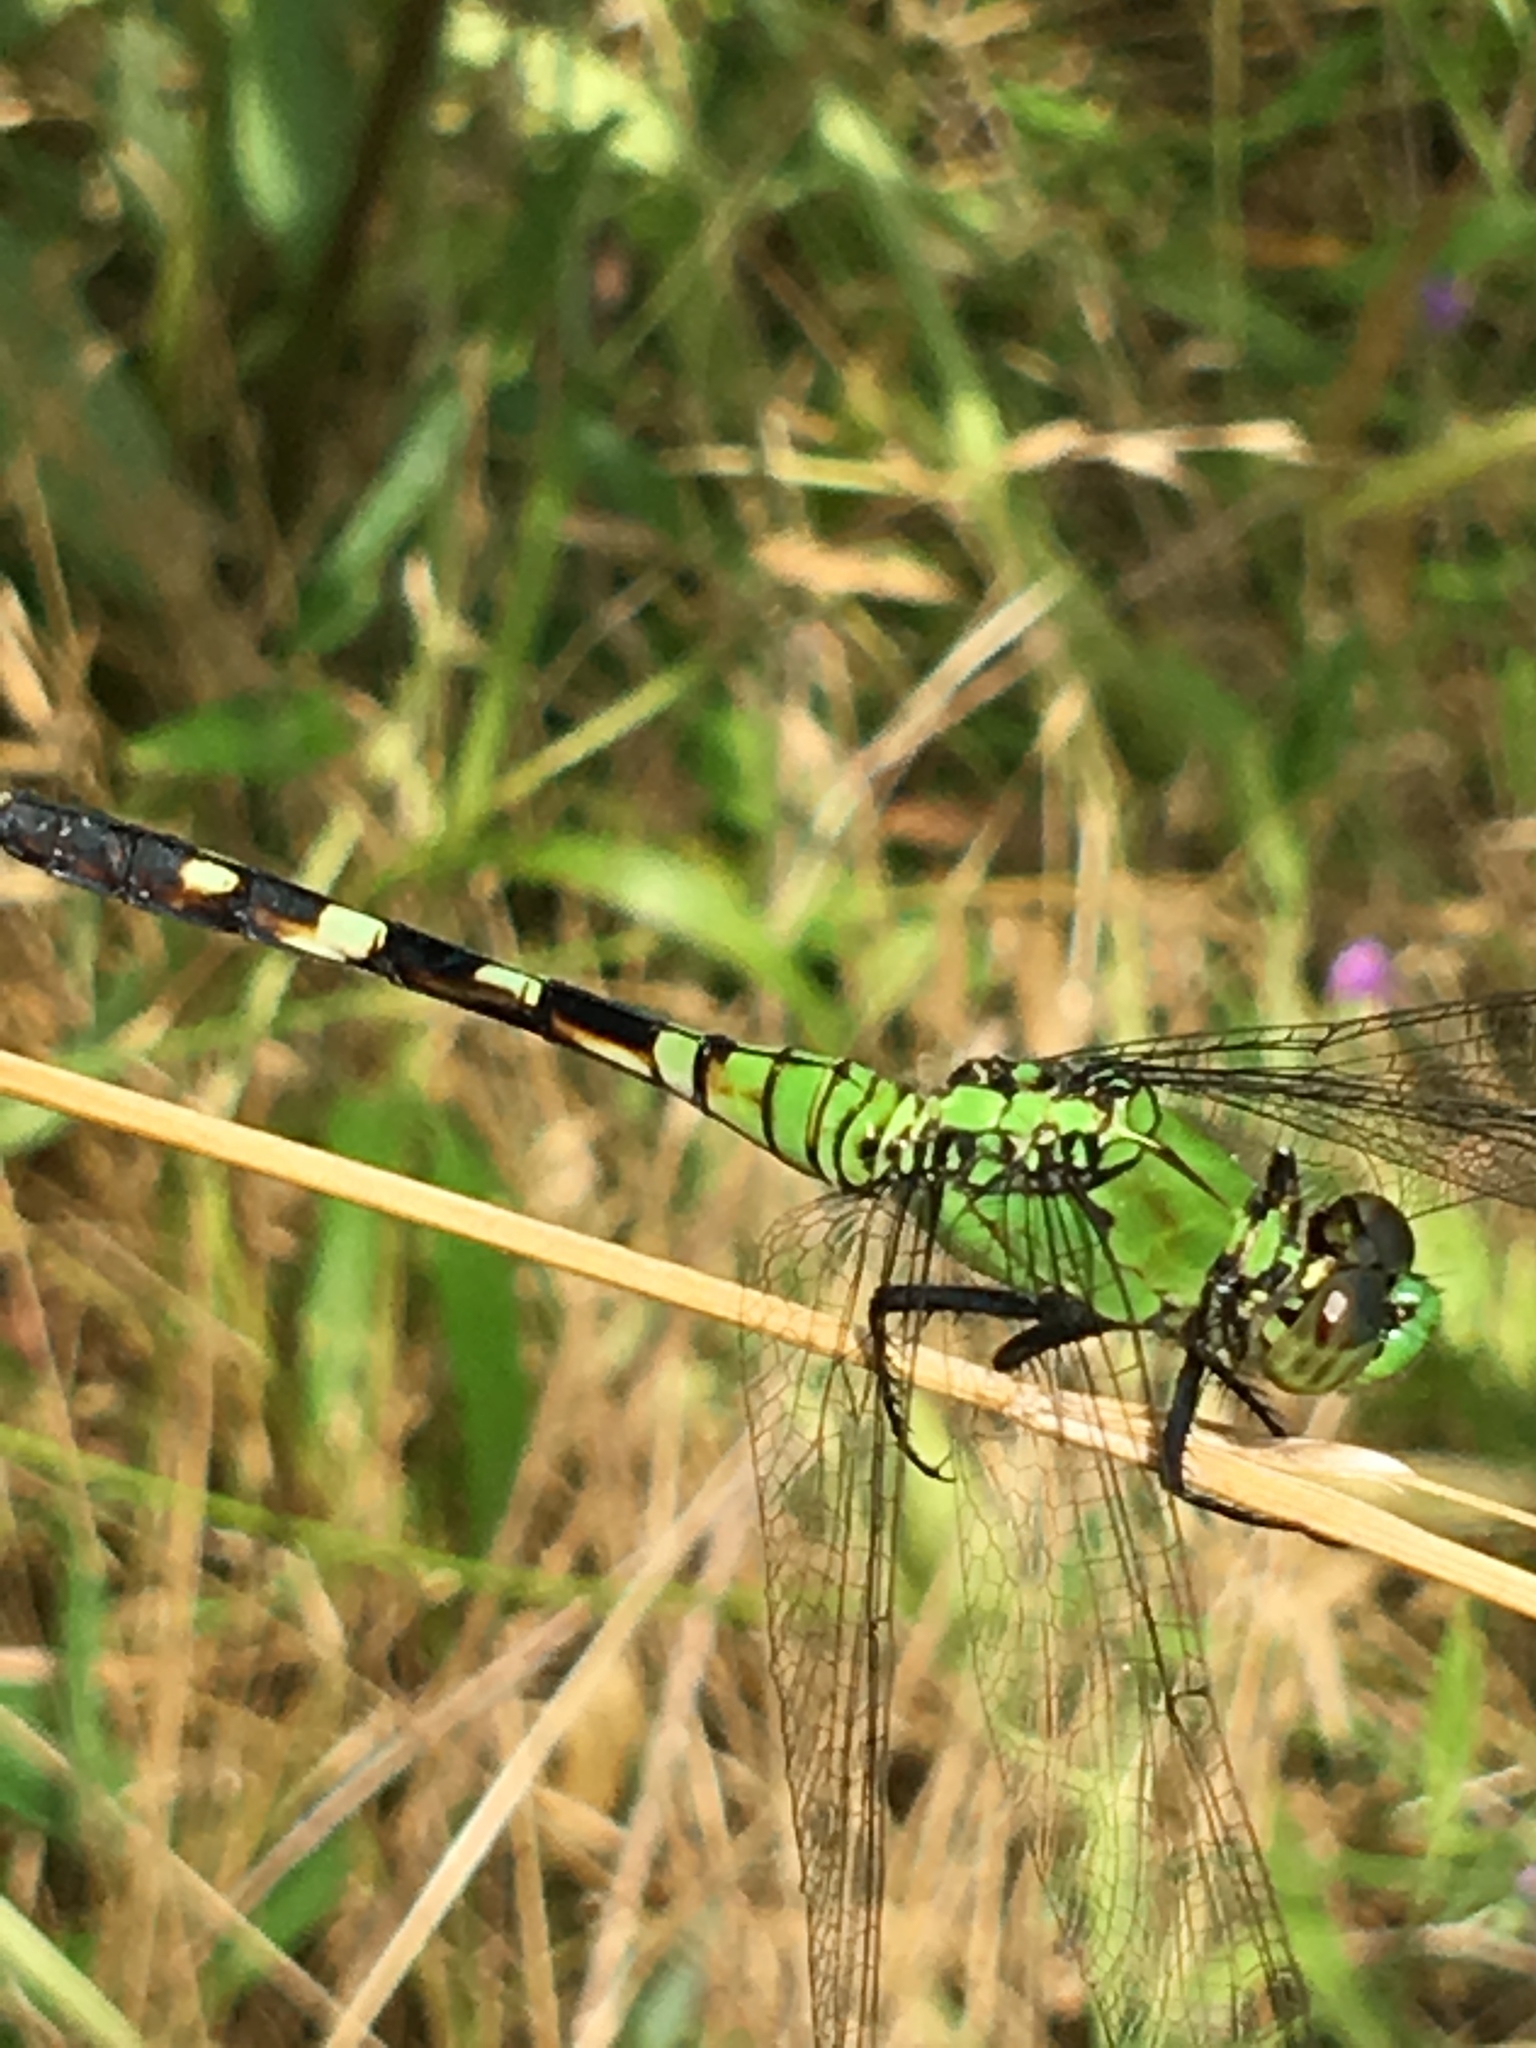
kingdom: Animalia
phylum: Arthropoda
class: Insecta
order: Odonata
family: Libellulidae
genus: Erythemis
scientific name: Erythemis simplicicollis
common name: Eastern pondhawk
